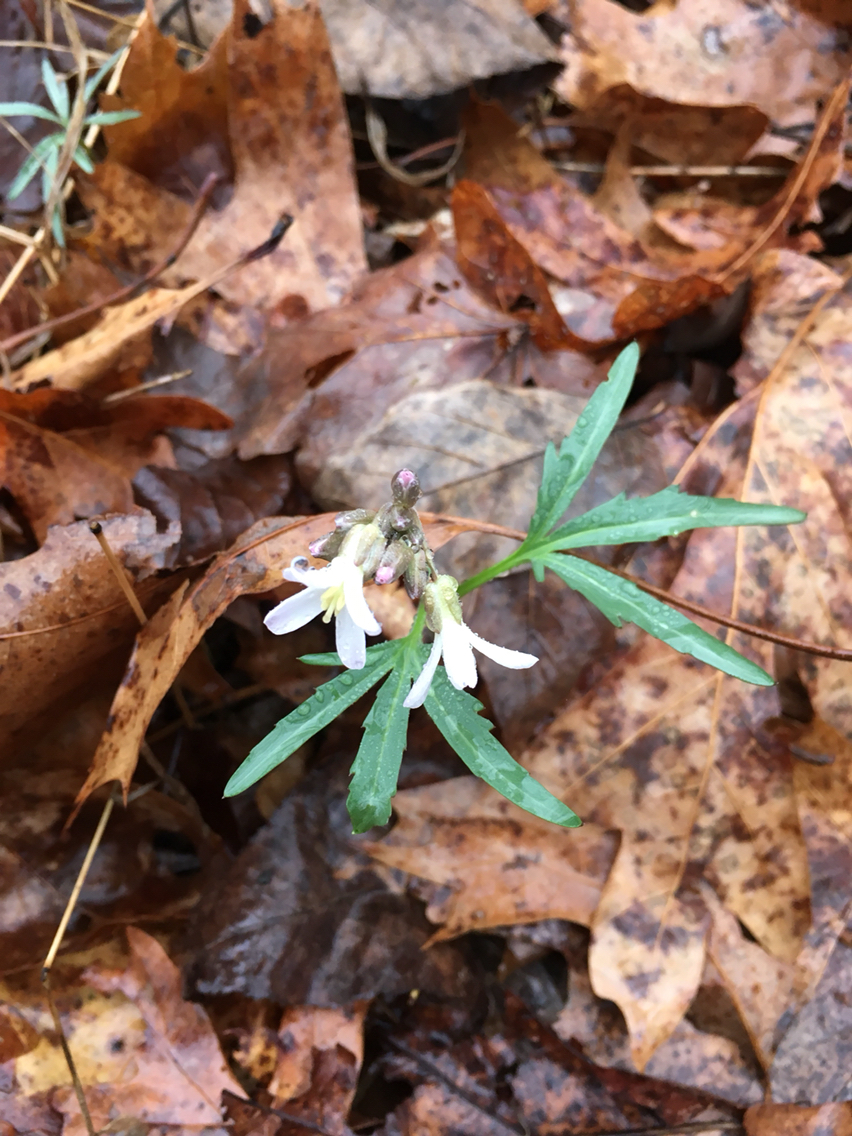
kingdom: Plantae
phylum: Tracheophyta
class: Magnoliopsida
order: Brassicales
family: Brassicaceae
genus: Cardamine
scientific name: Cardamine concatenata
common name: Cut-leaf toothcup
